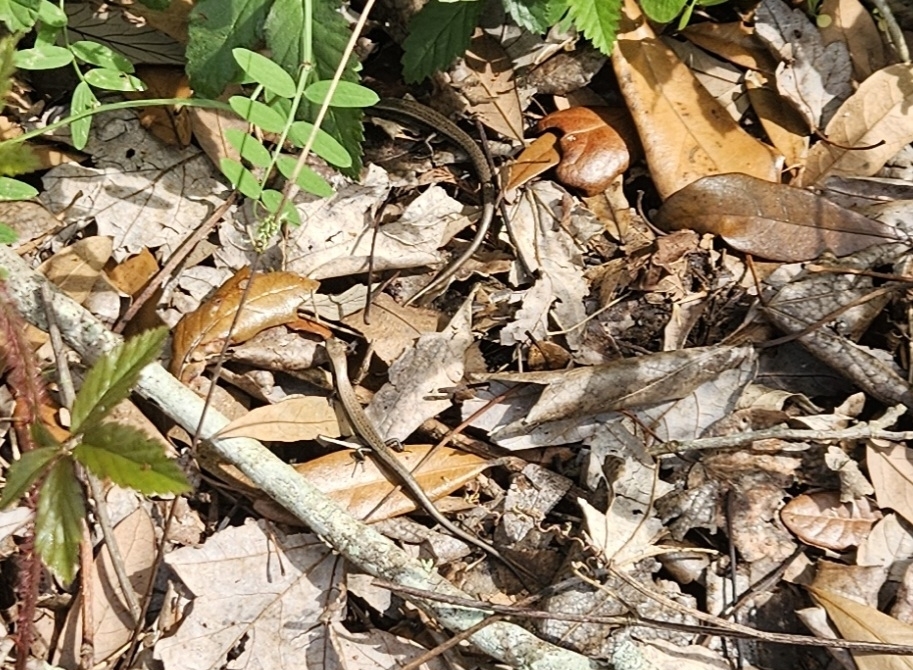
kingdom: Animalia
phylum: Chordata
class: Squamata
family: Scincidae
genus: Scincella
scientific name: Scincella lateralis
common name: Ground skink
